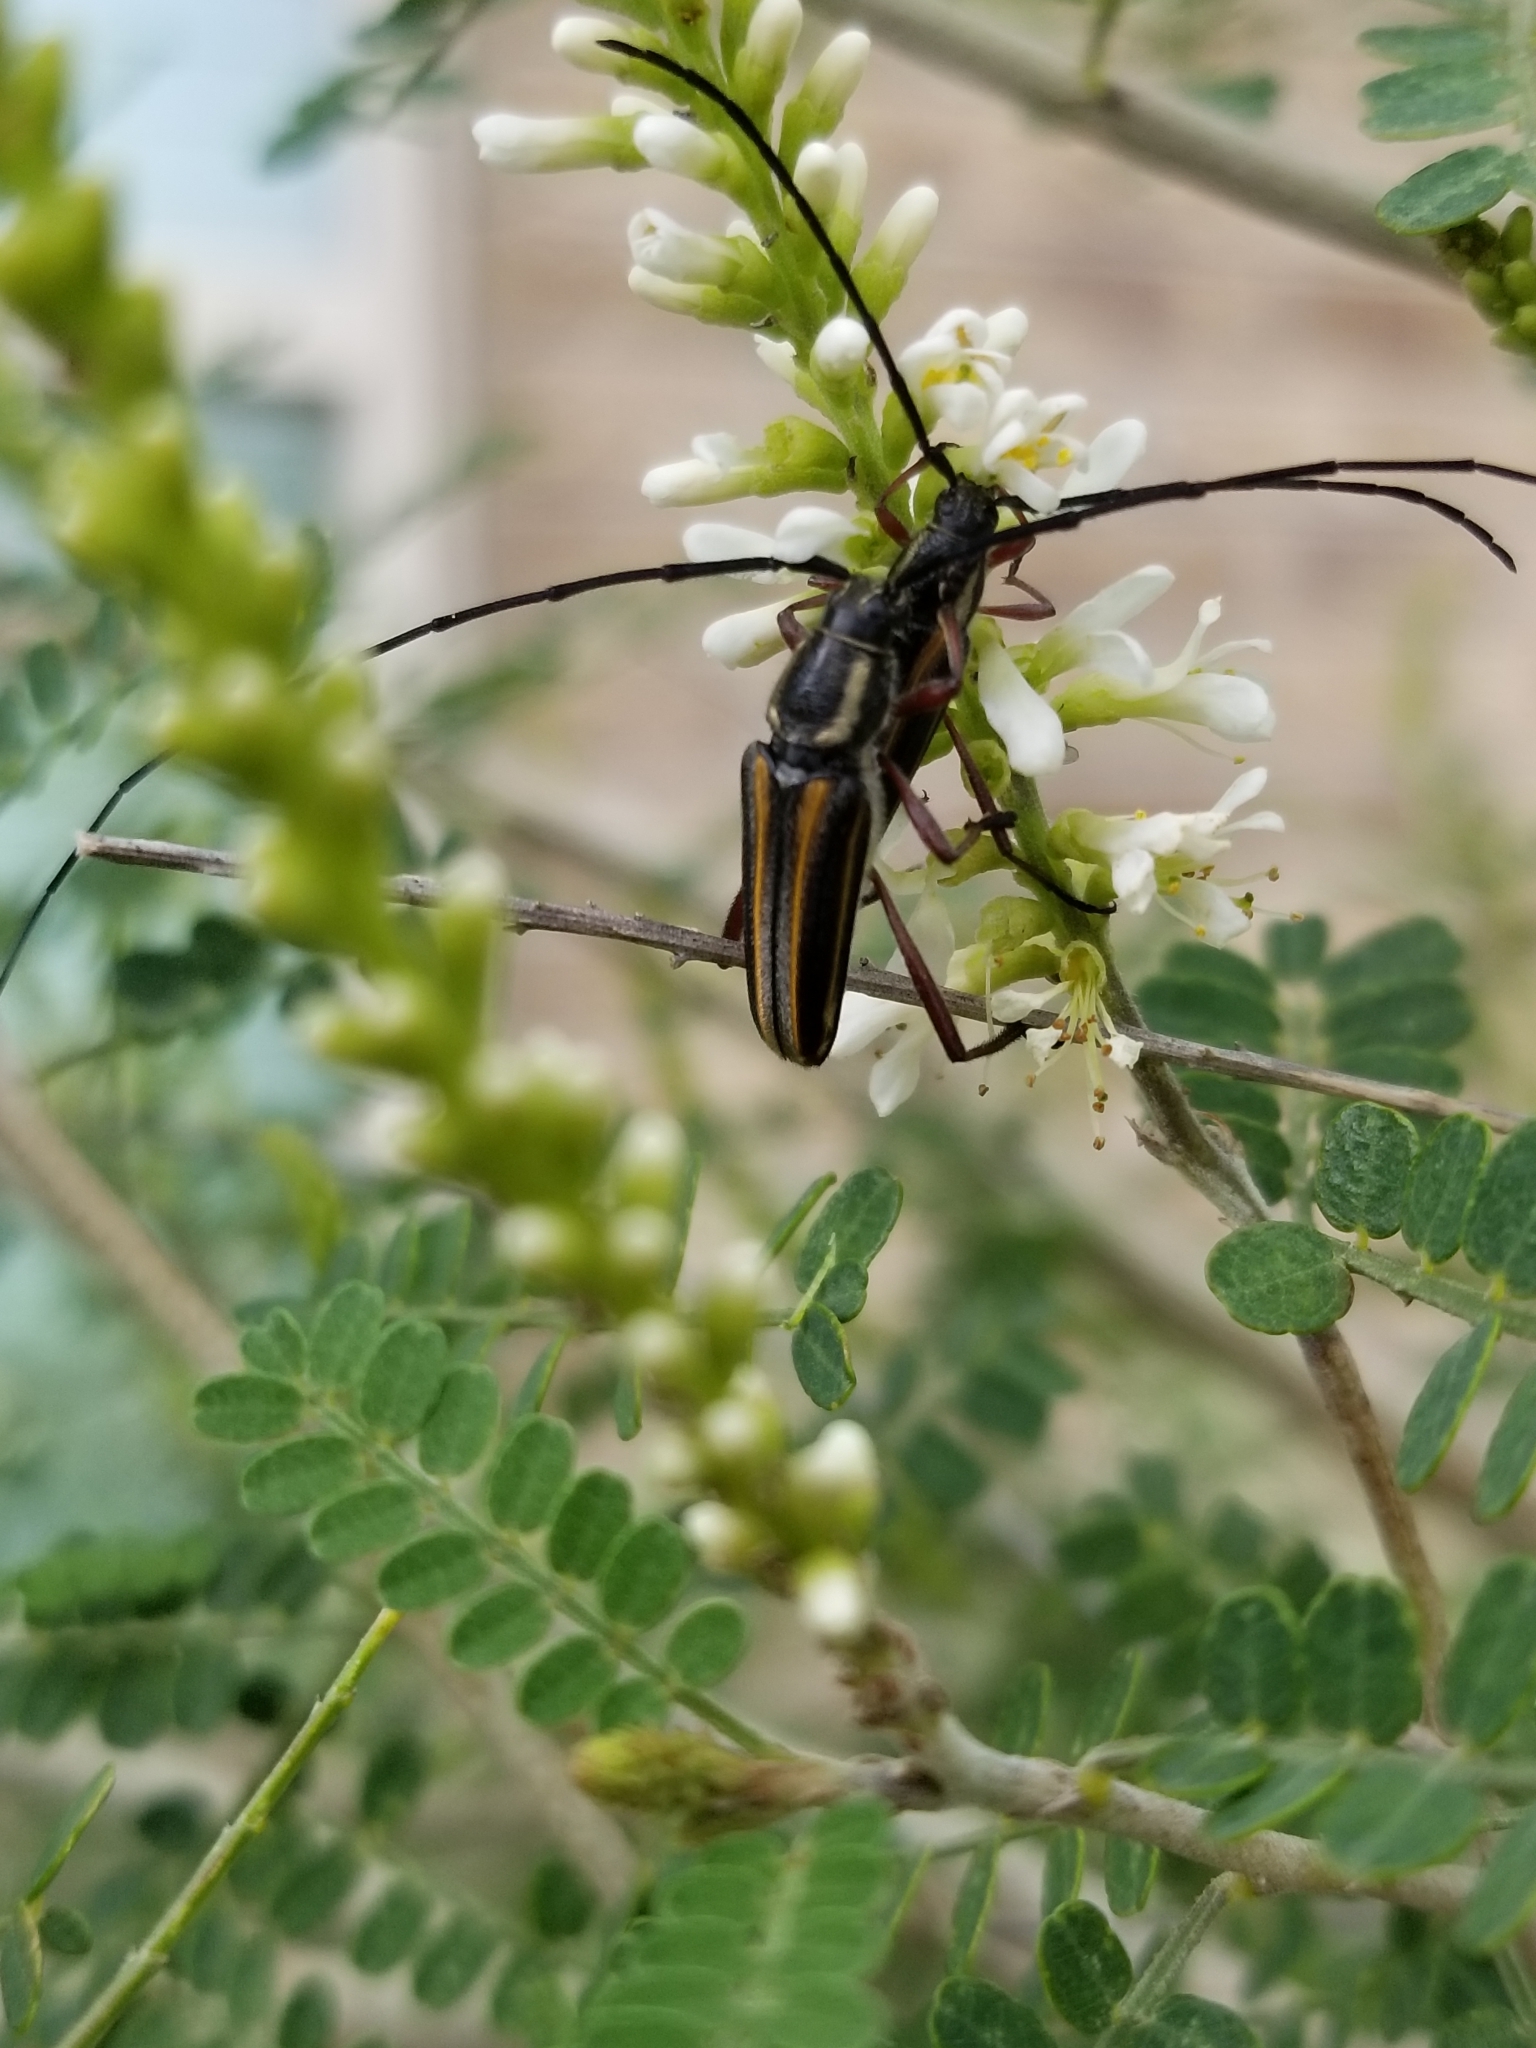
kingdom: Animalia
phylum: Arthropoda
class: Insecta
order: Coleoptera
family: Cerambycidae
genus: Sphaenothecus
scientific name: Sphaenothecus bilineatus
